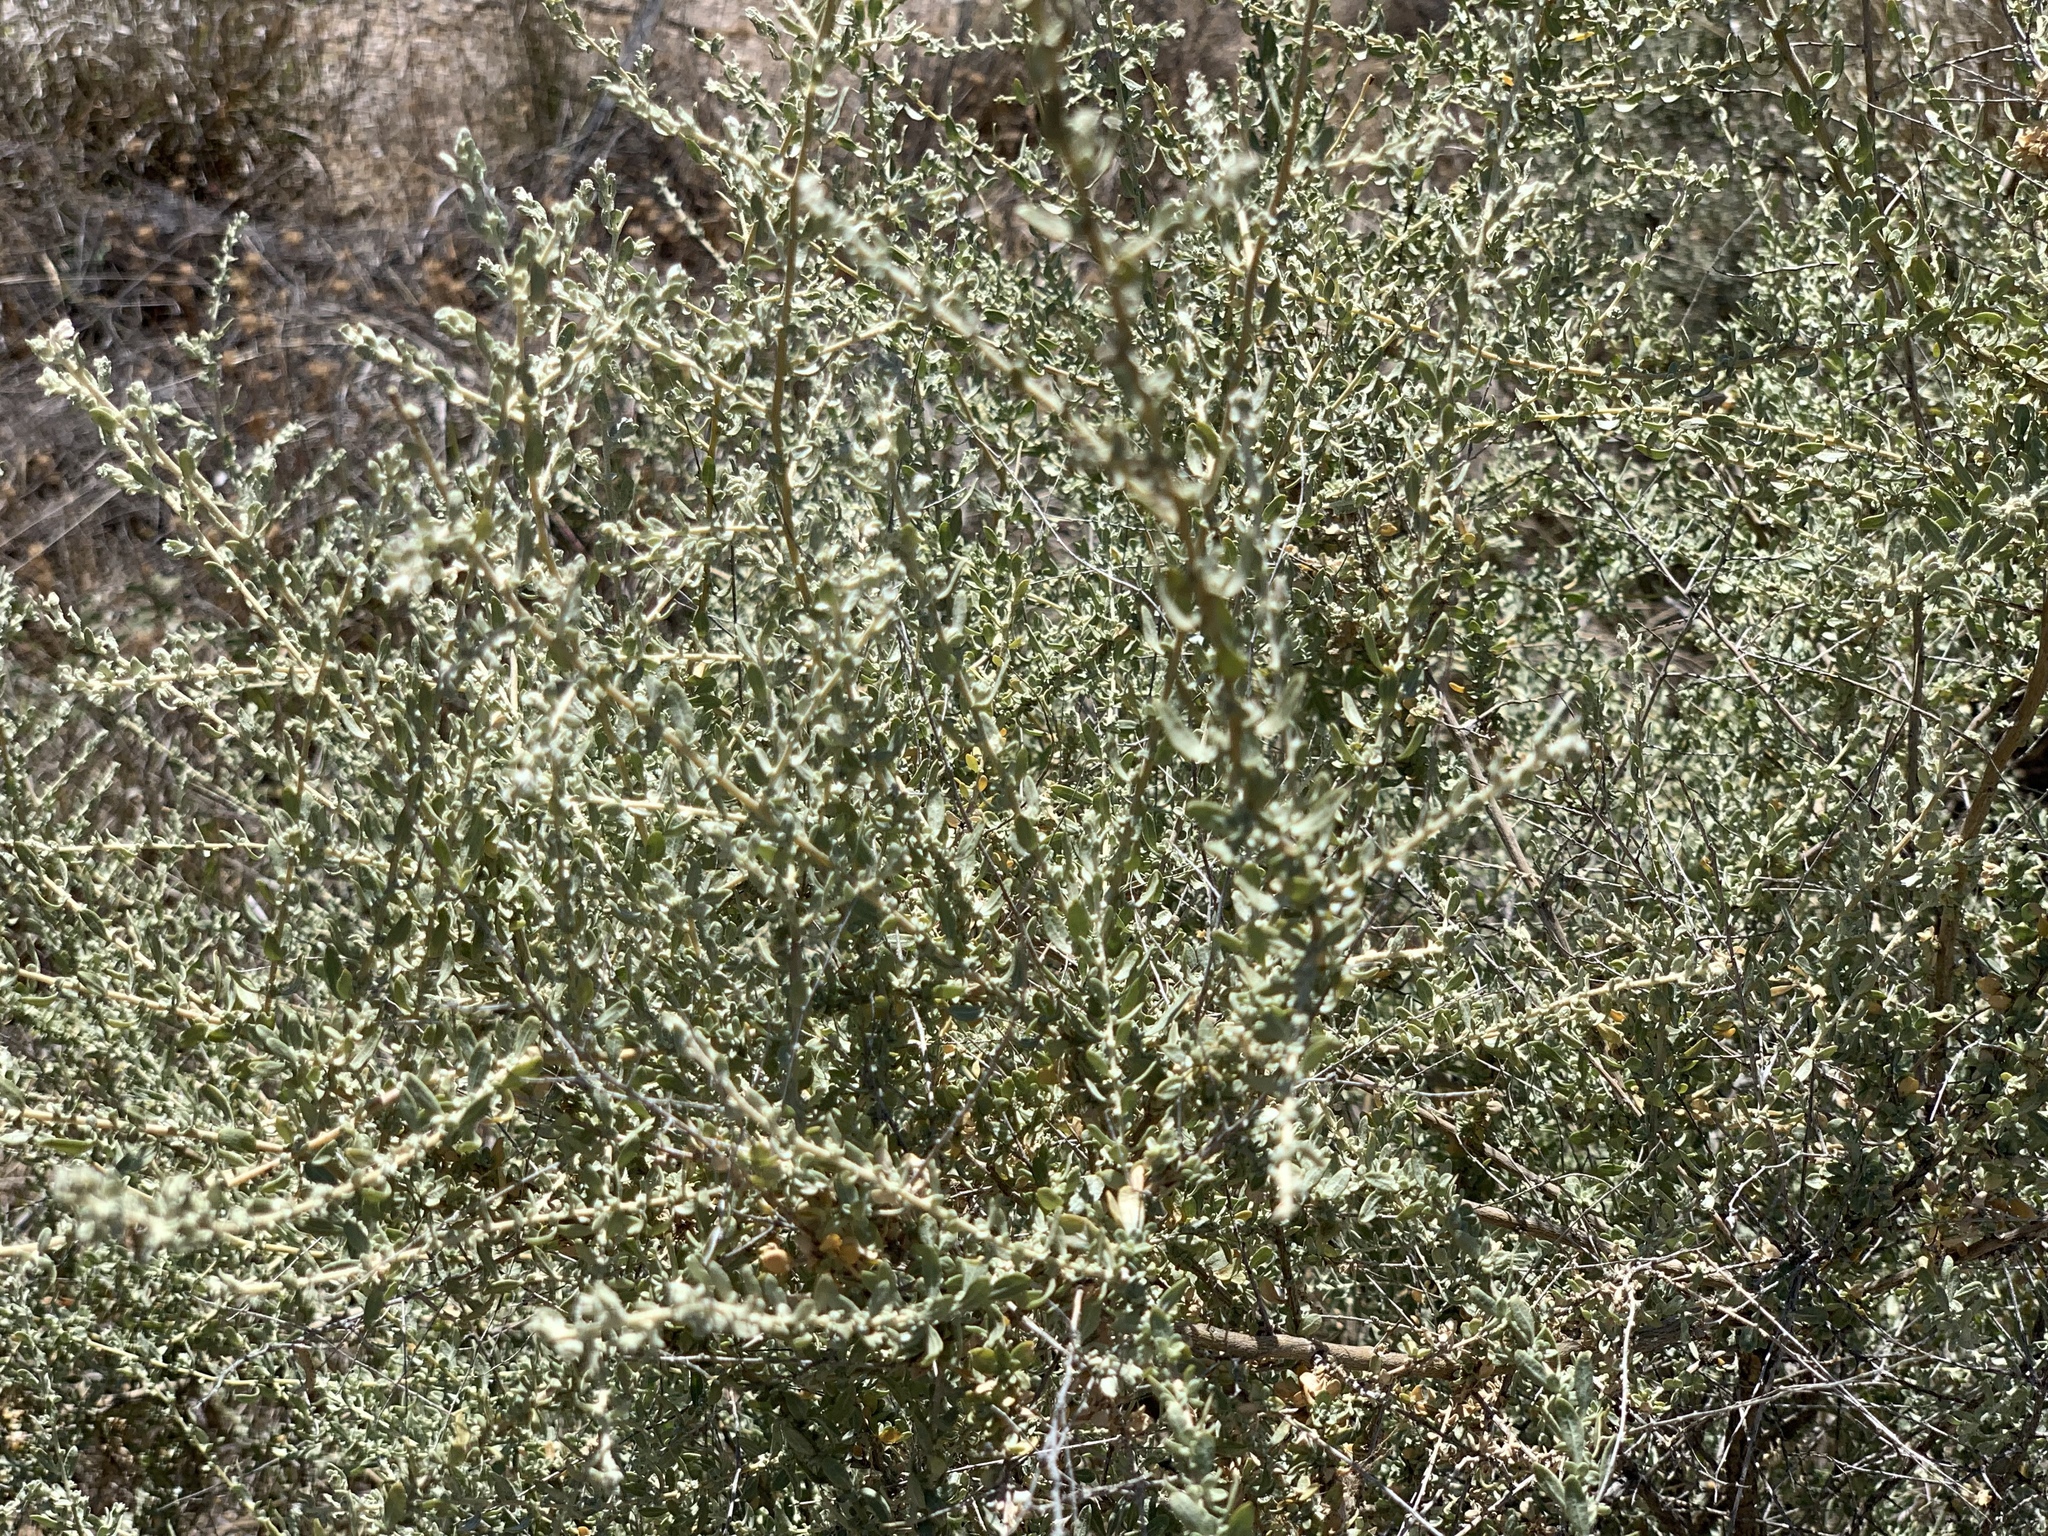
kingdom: Plantae
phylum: Tracheophyta
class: Magnoliopsida
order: Caryophyllales
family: Amaranthaceae
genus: Atriplex
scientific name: Atriplex polycarpa
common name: Desert saltbush
